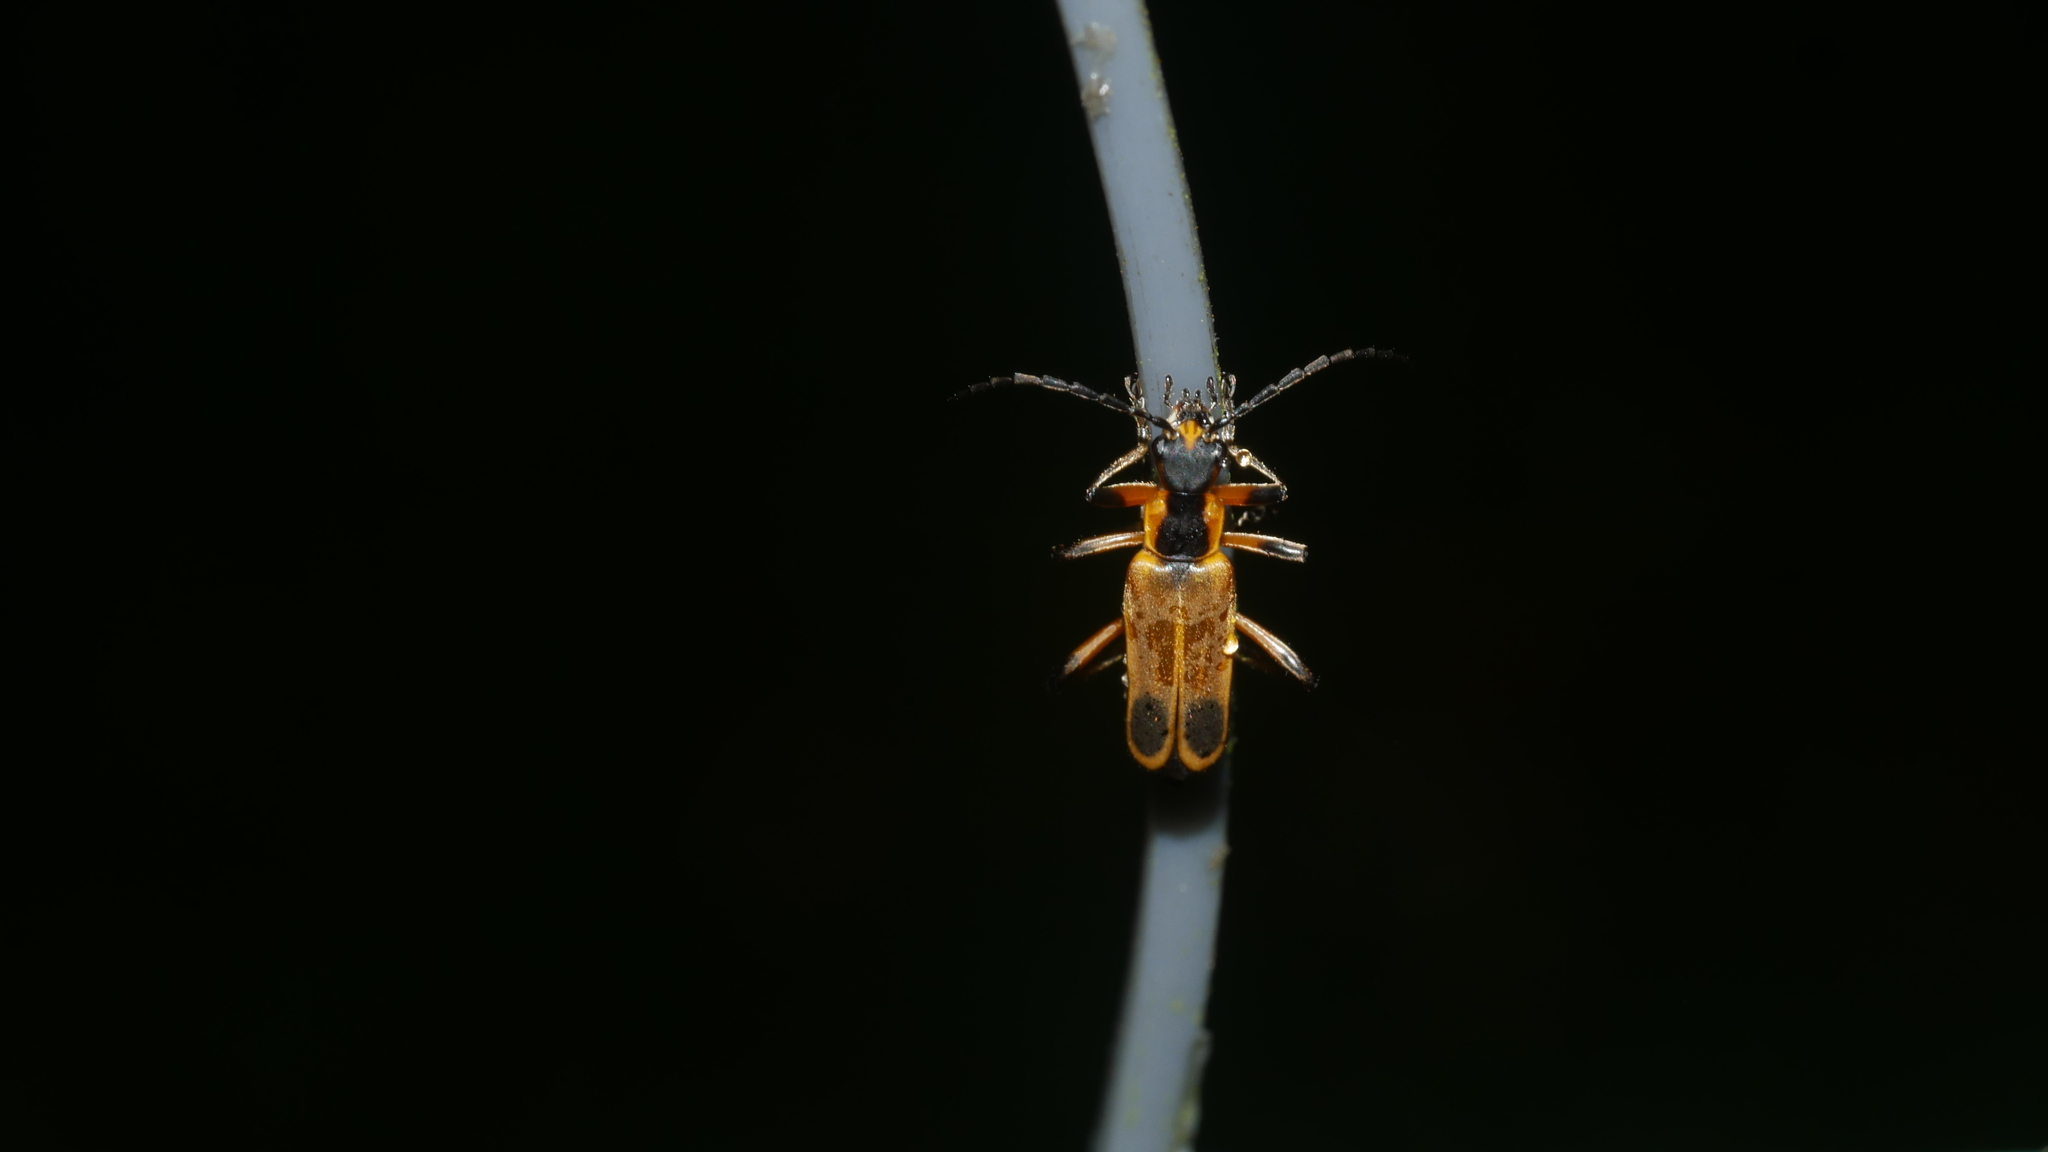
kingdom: Animalia
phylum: Arthropoda
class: Insecta
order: Coleoptera
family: Cantharidae
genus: Chauliognathus
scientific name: Chauliognathus marginatus
